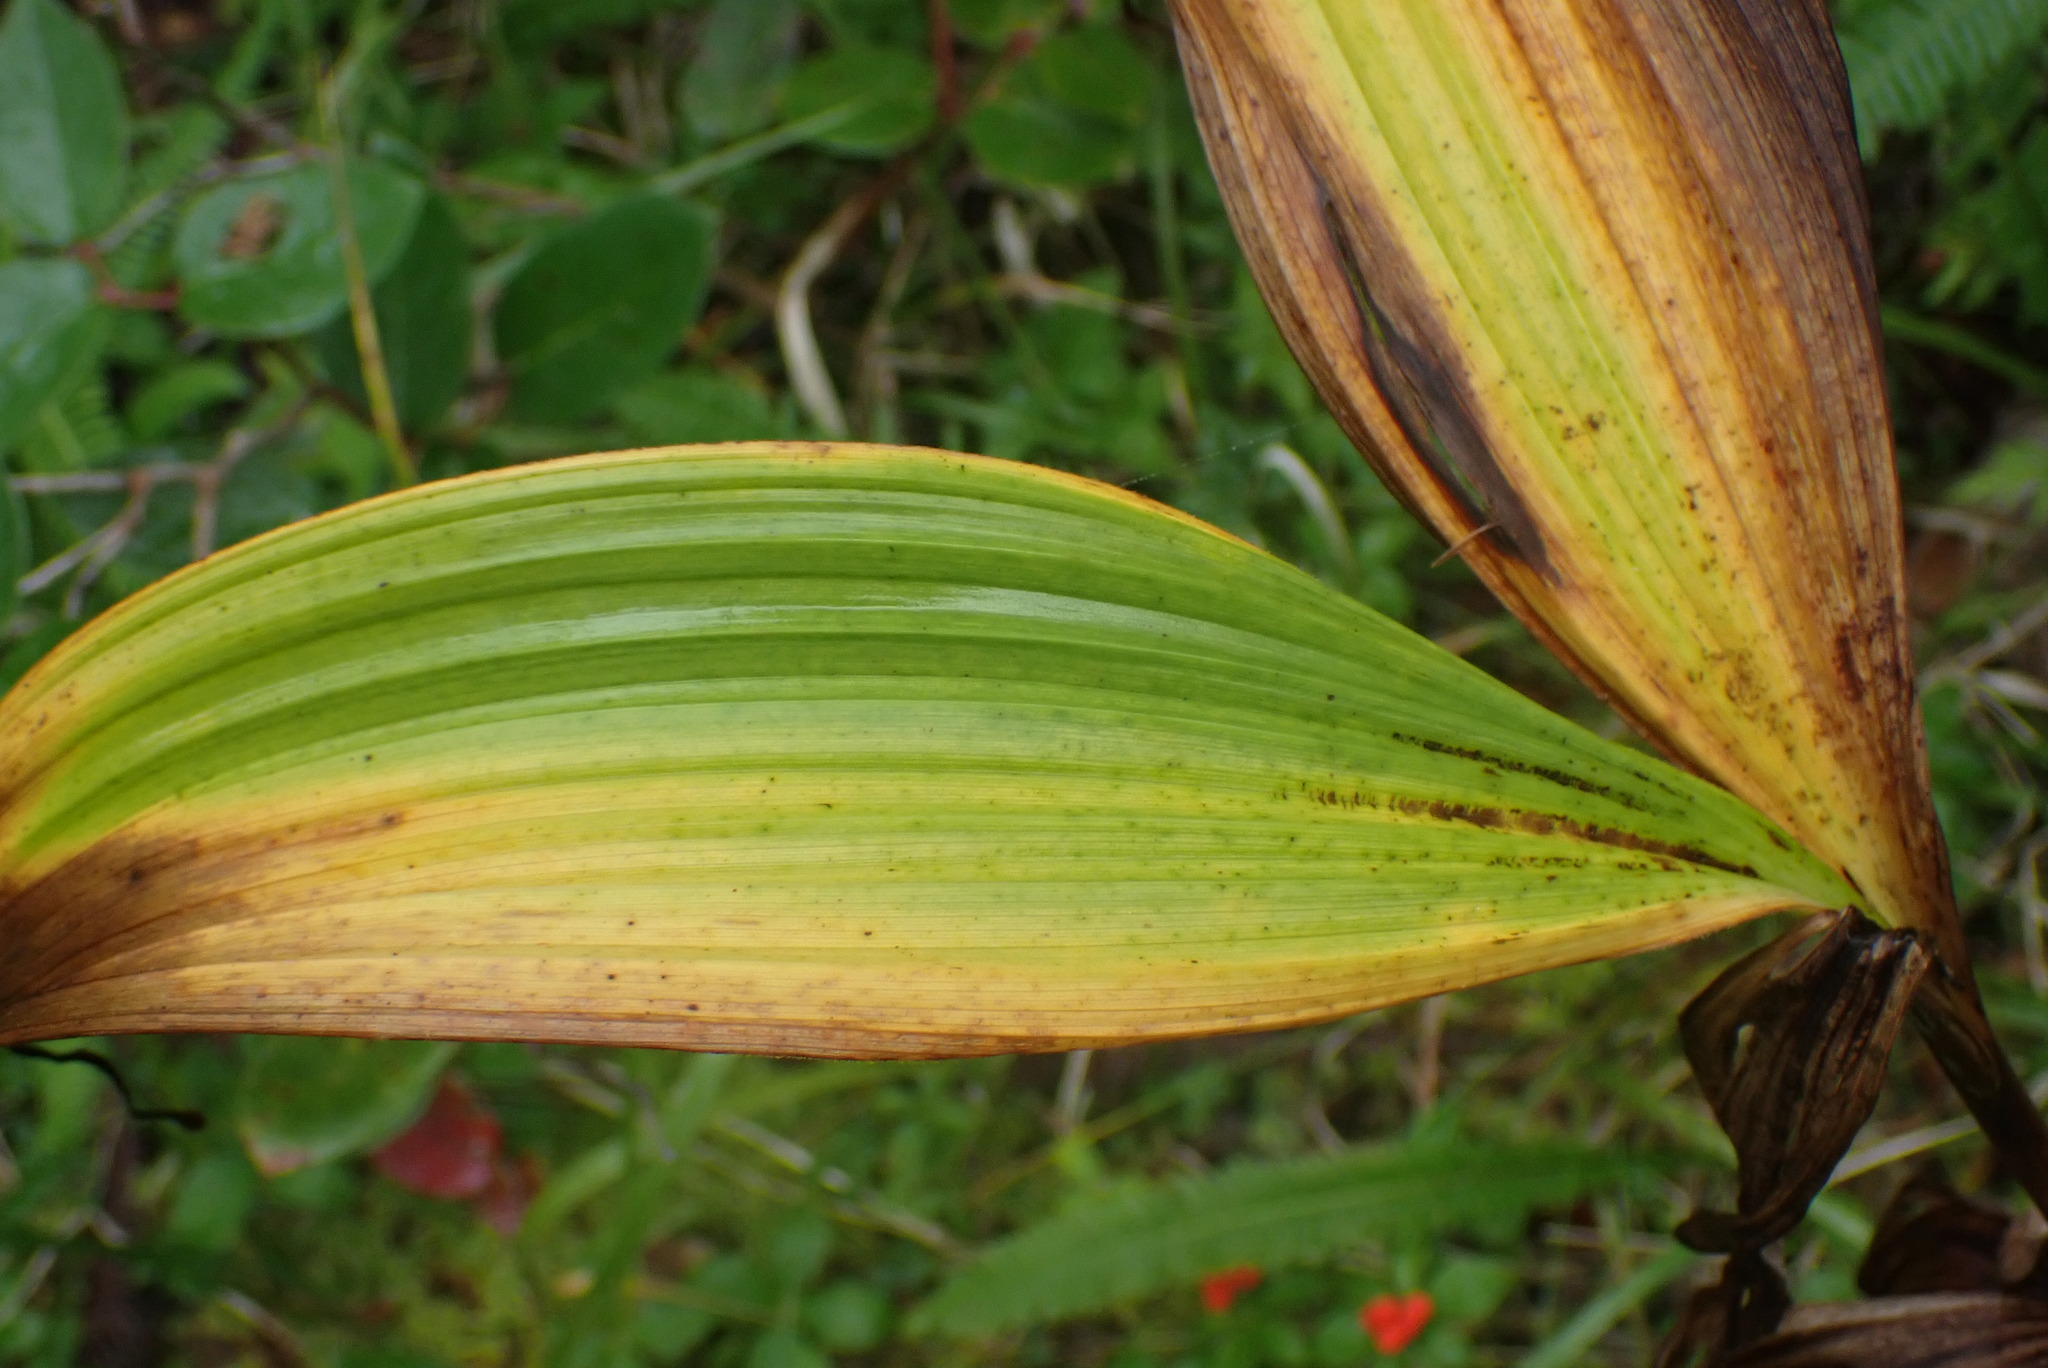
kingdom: Plantae
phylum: Tracheophyta
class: Liliopsida
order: Liliales
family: Melanthiaceae
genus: Veratrum
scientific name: Veratrum viride
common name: American false hellebore
